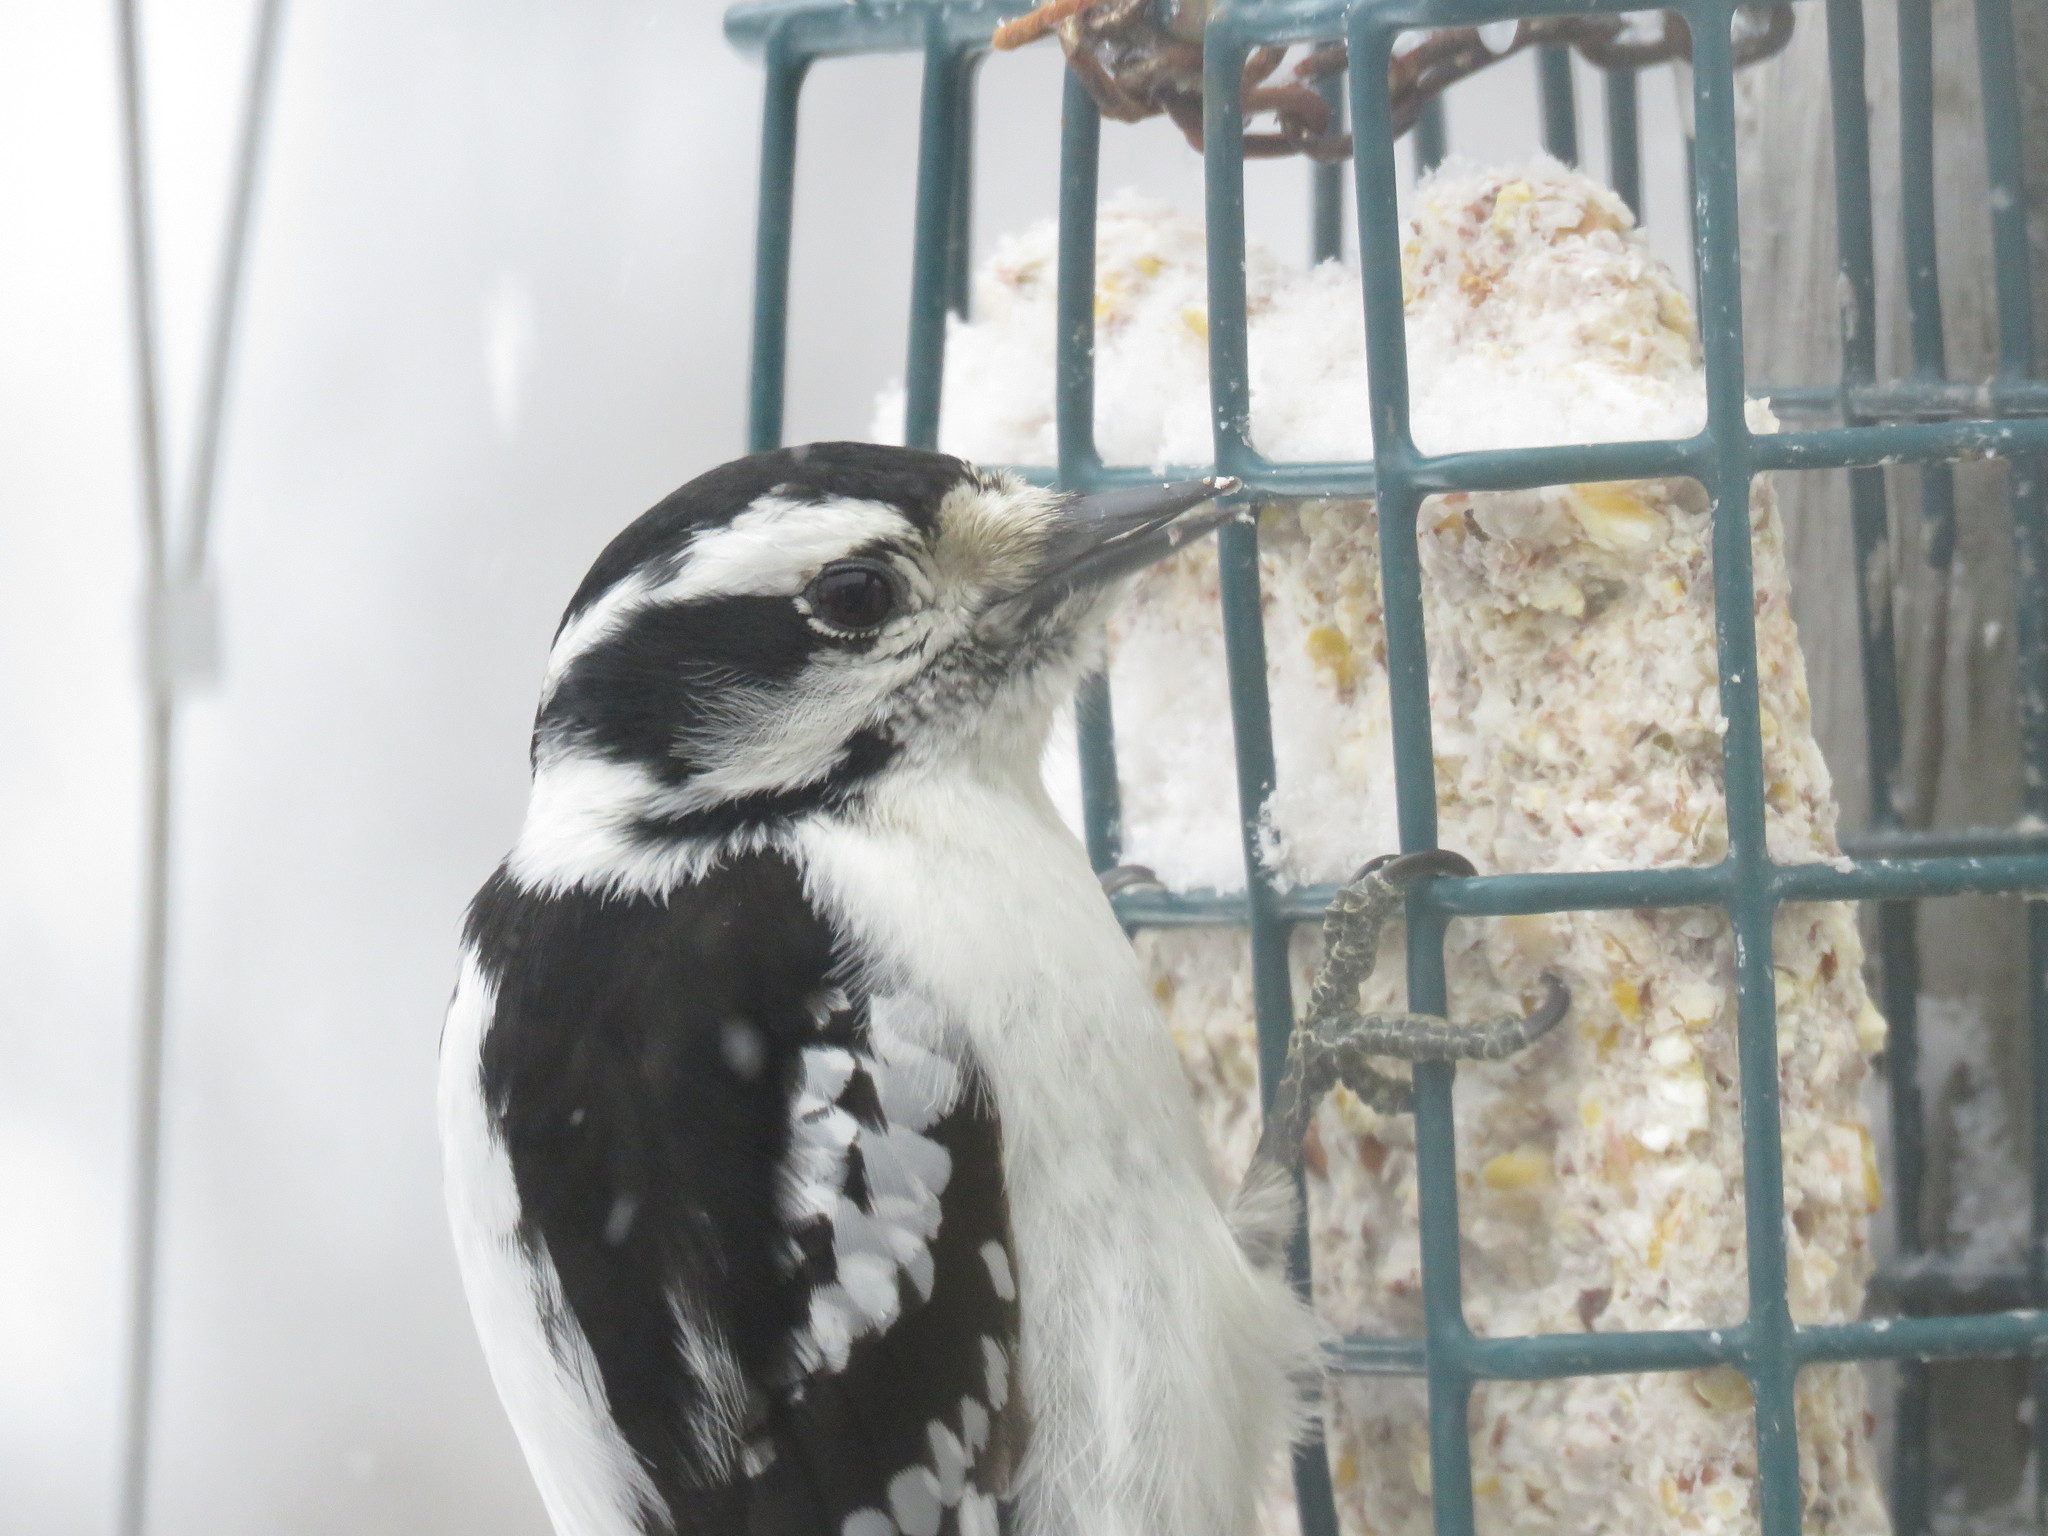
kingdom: Animalia
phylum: Chordata
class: Aves
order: Piciformes
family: Picidae
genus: Dryobates
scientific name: Dryobates pubescens
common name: Downy woodpecker
